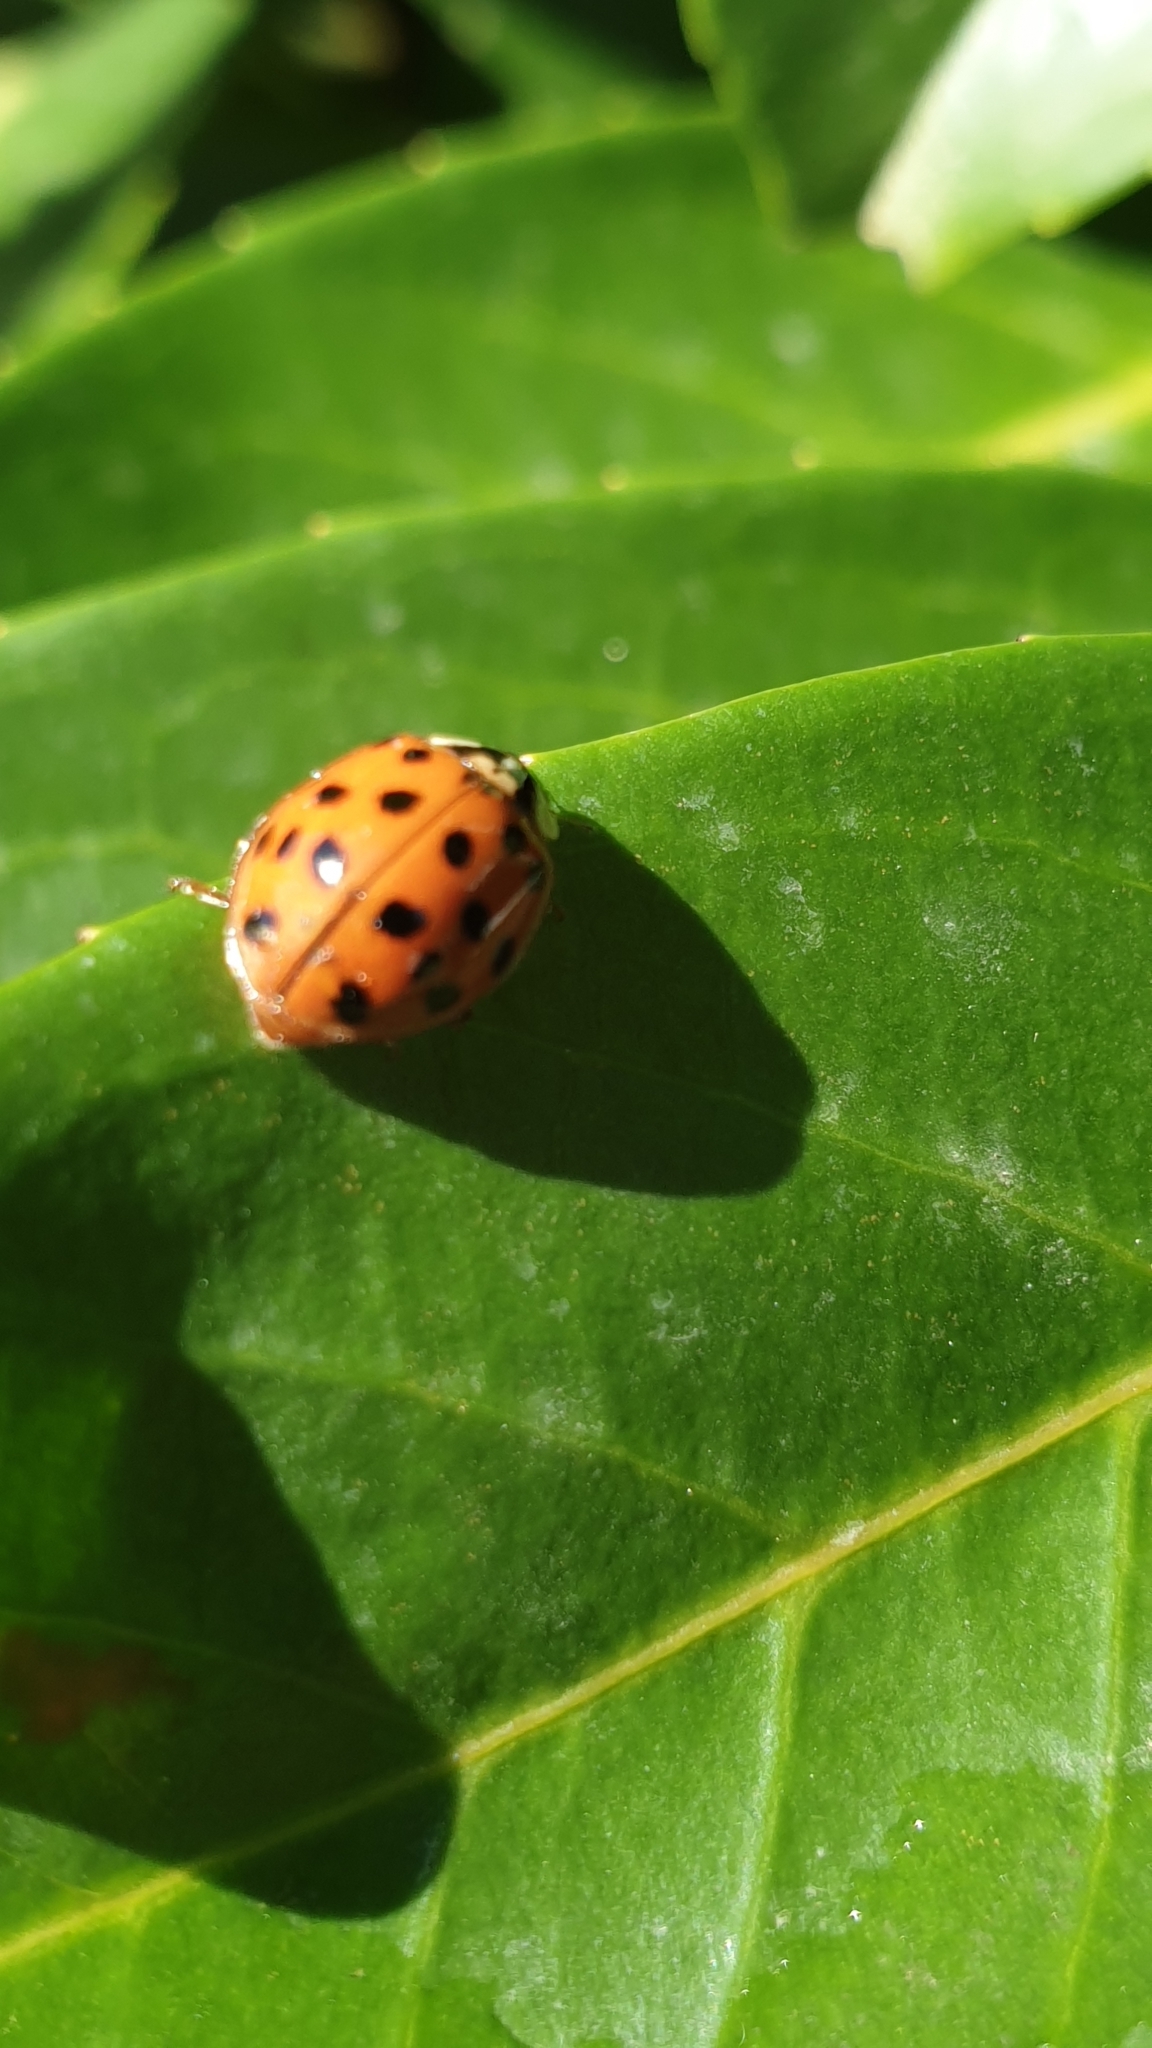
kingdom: Animalia
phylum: Arthropoda
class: Insecta
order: Coleoptera
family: Coccinellidae
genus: Harmonia
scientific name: Harmonia axyridis
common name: Harlequin ladybird
